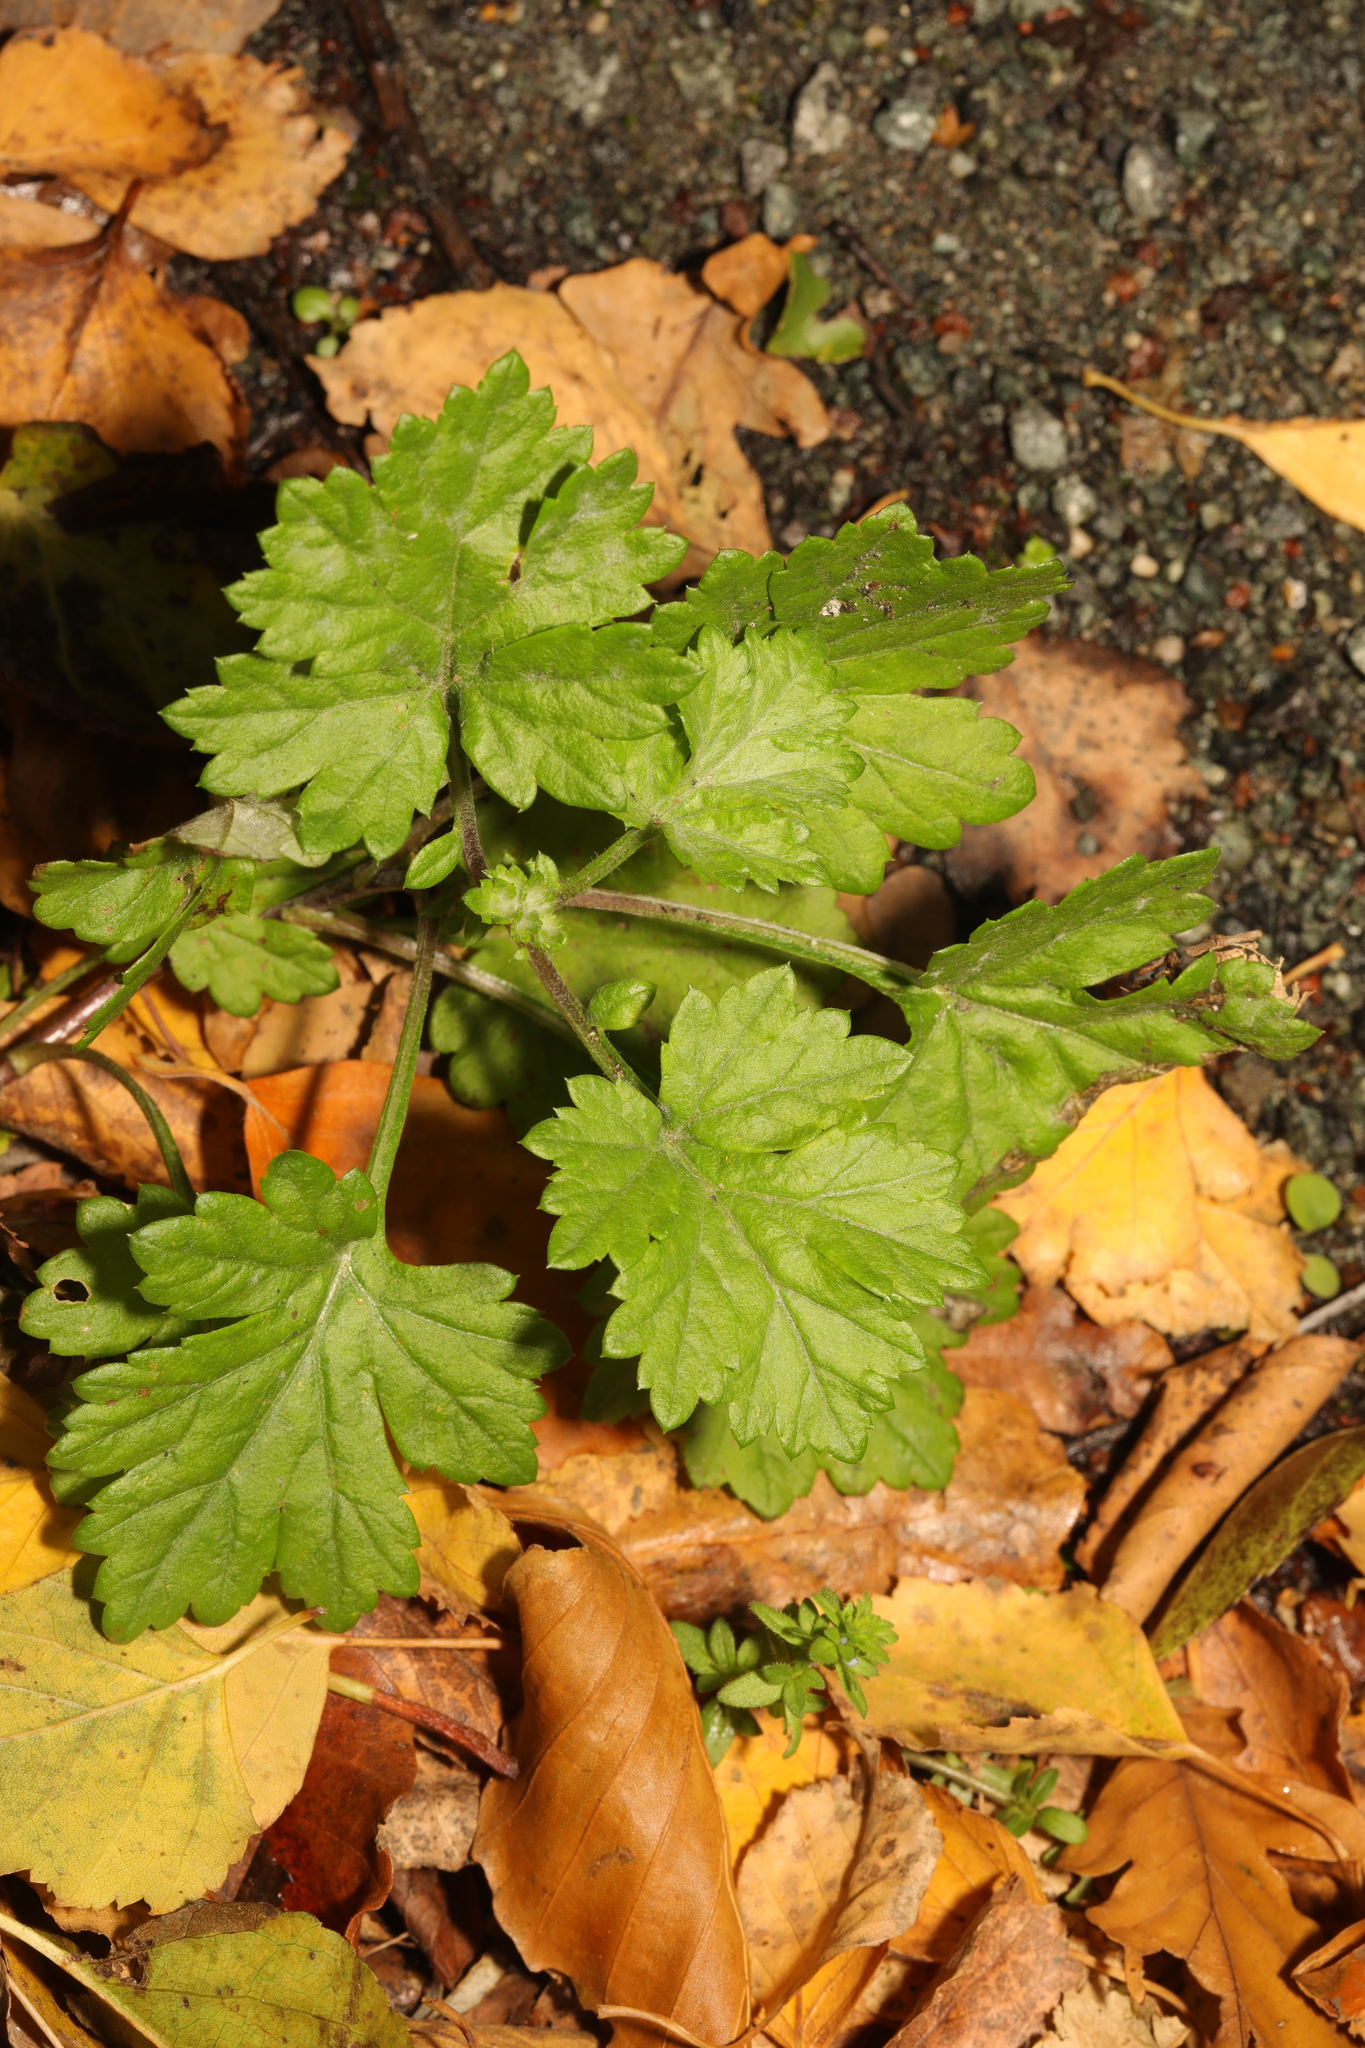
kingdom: Plantae
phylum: Tracheophyta
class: Magnoliopsida
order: Asterales
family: Asteraceae
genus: Tanacetum
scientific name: Tanacetum parthenium
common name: Feverfew
